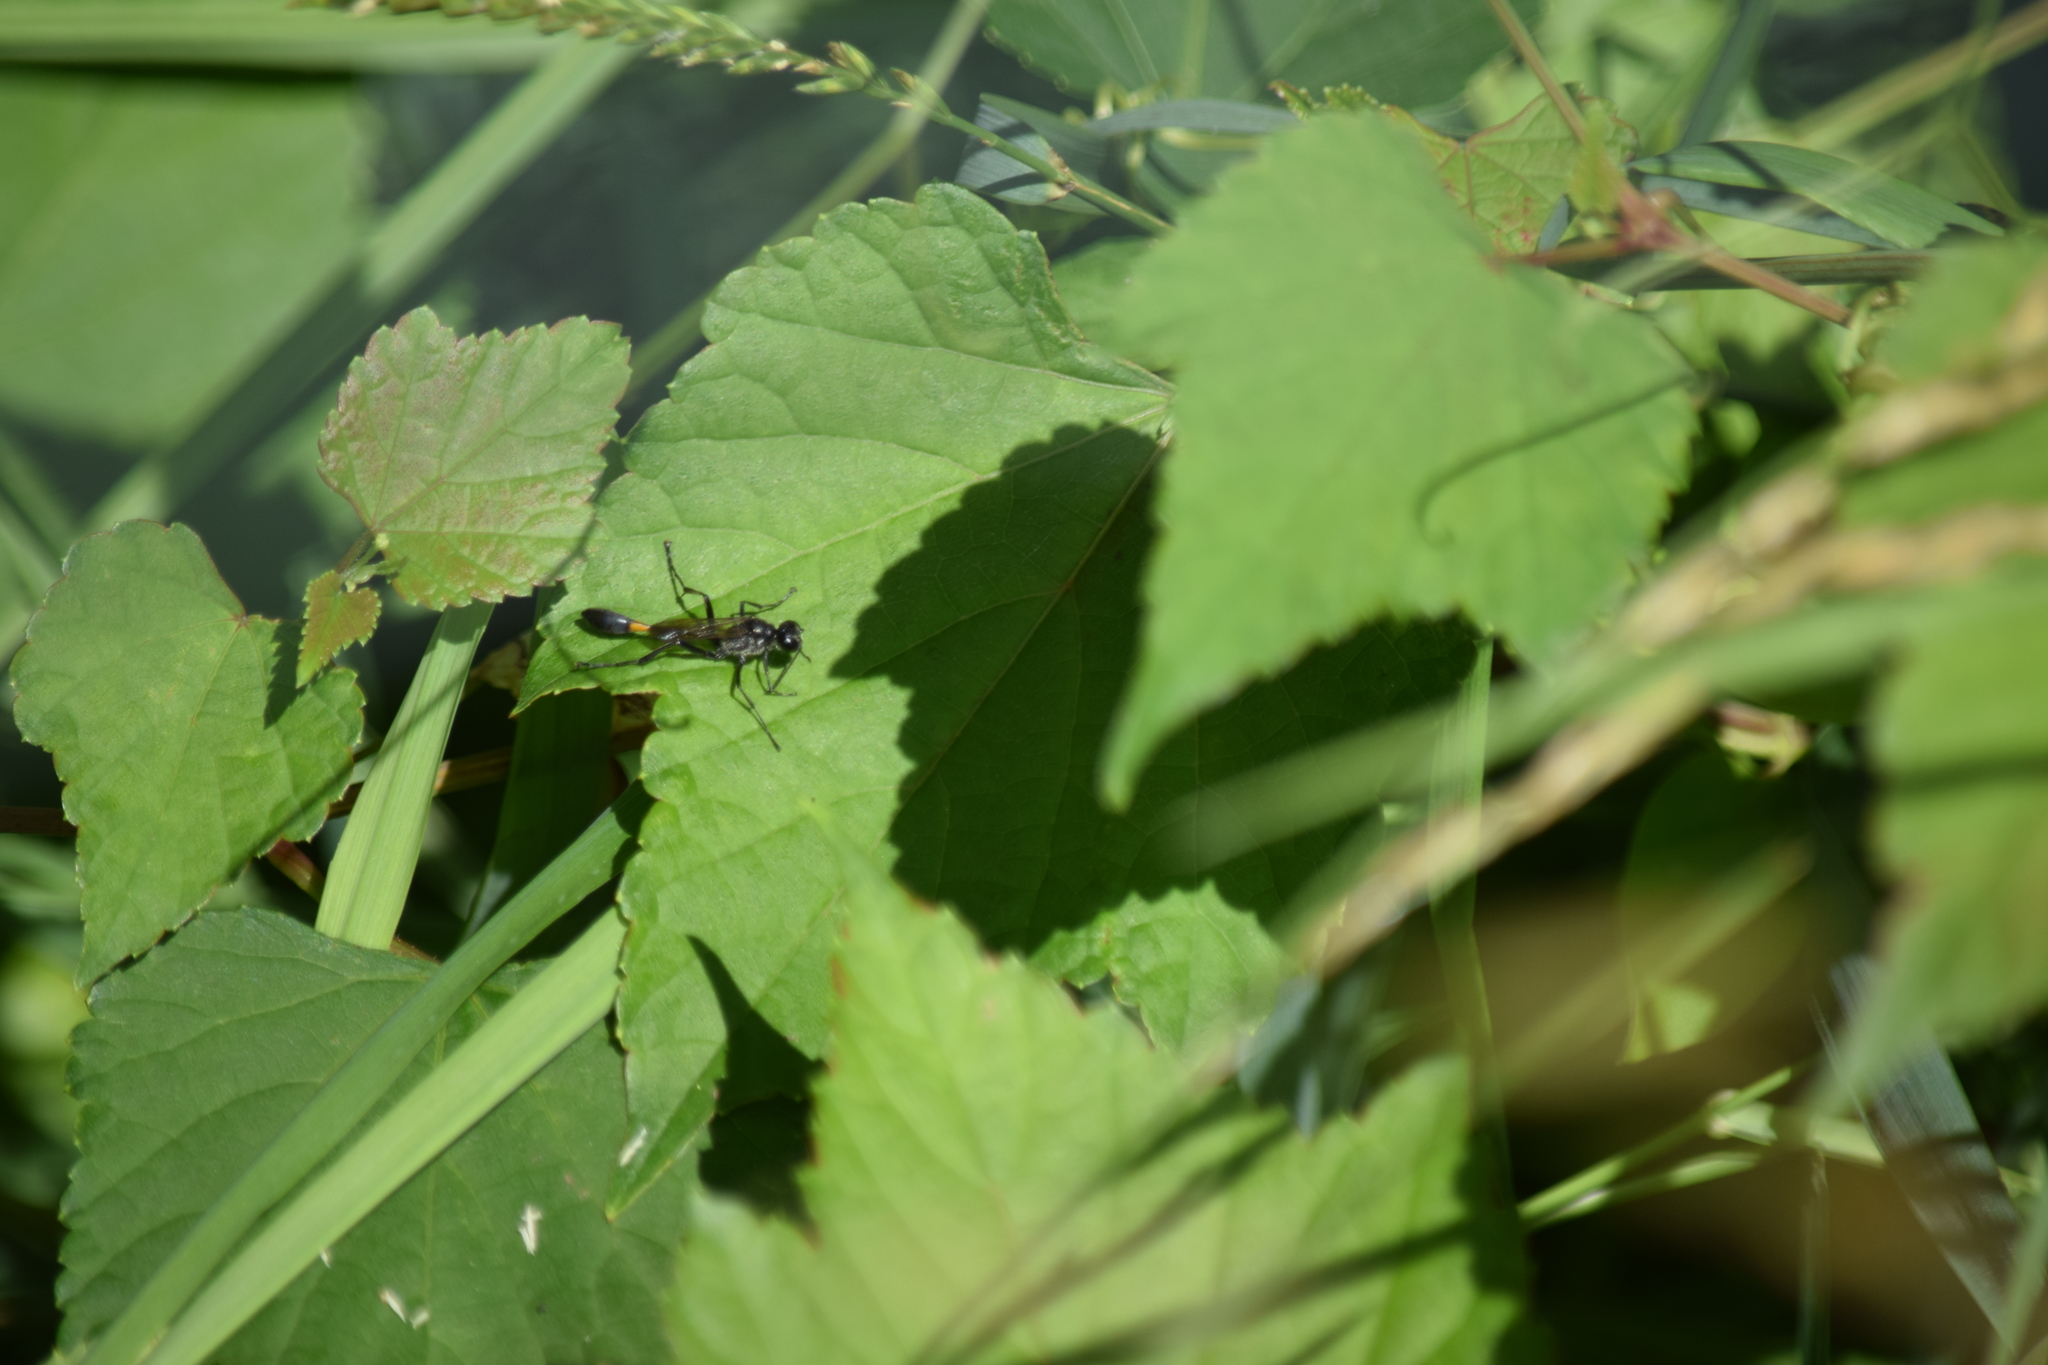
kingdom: Animalia
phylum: Arthropoda
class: Insecta
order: Hymenoptera
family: Sphecidae
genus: Ammophila
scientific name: Ammophila
